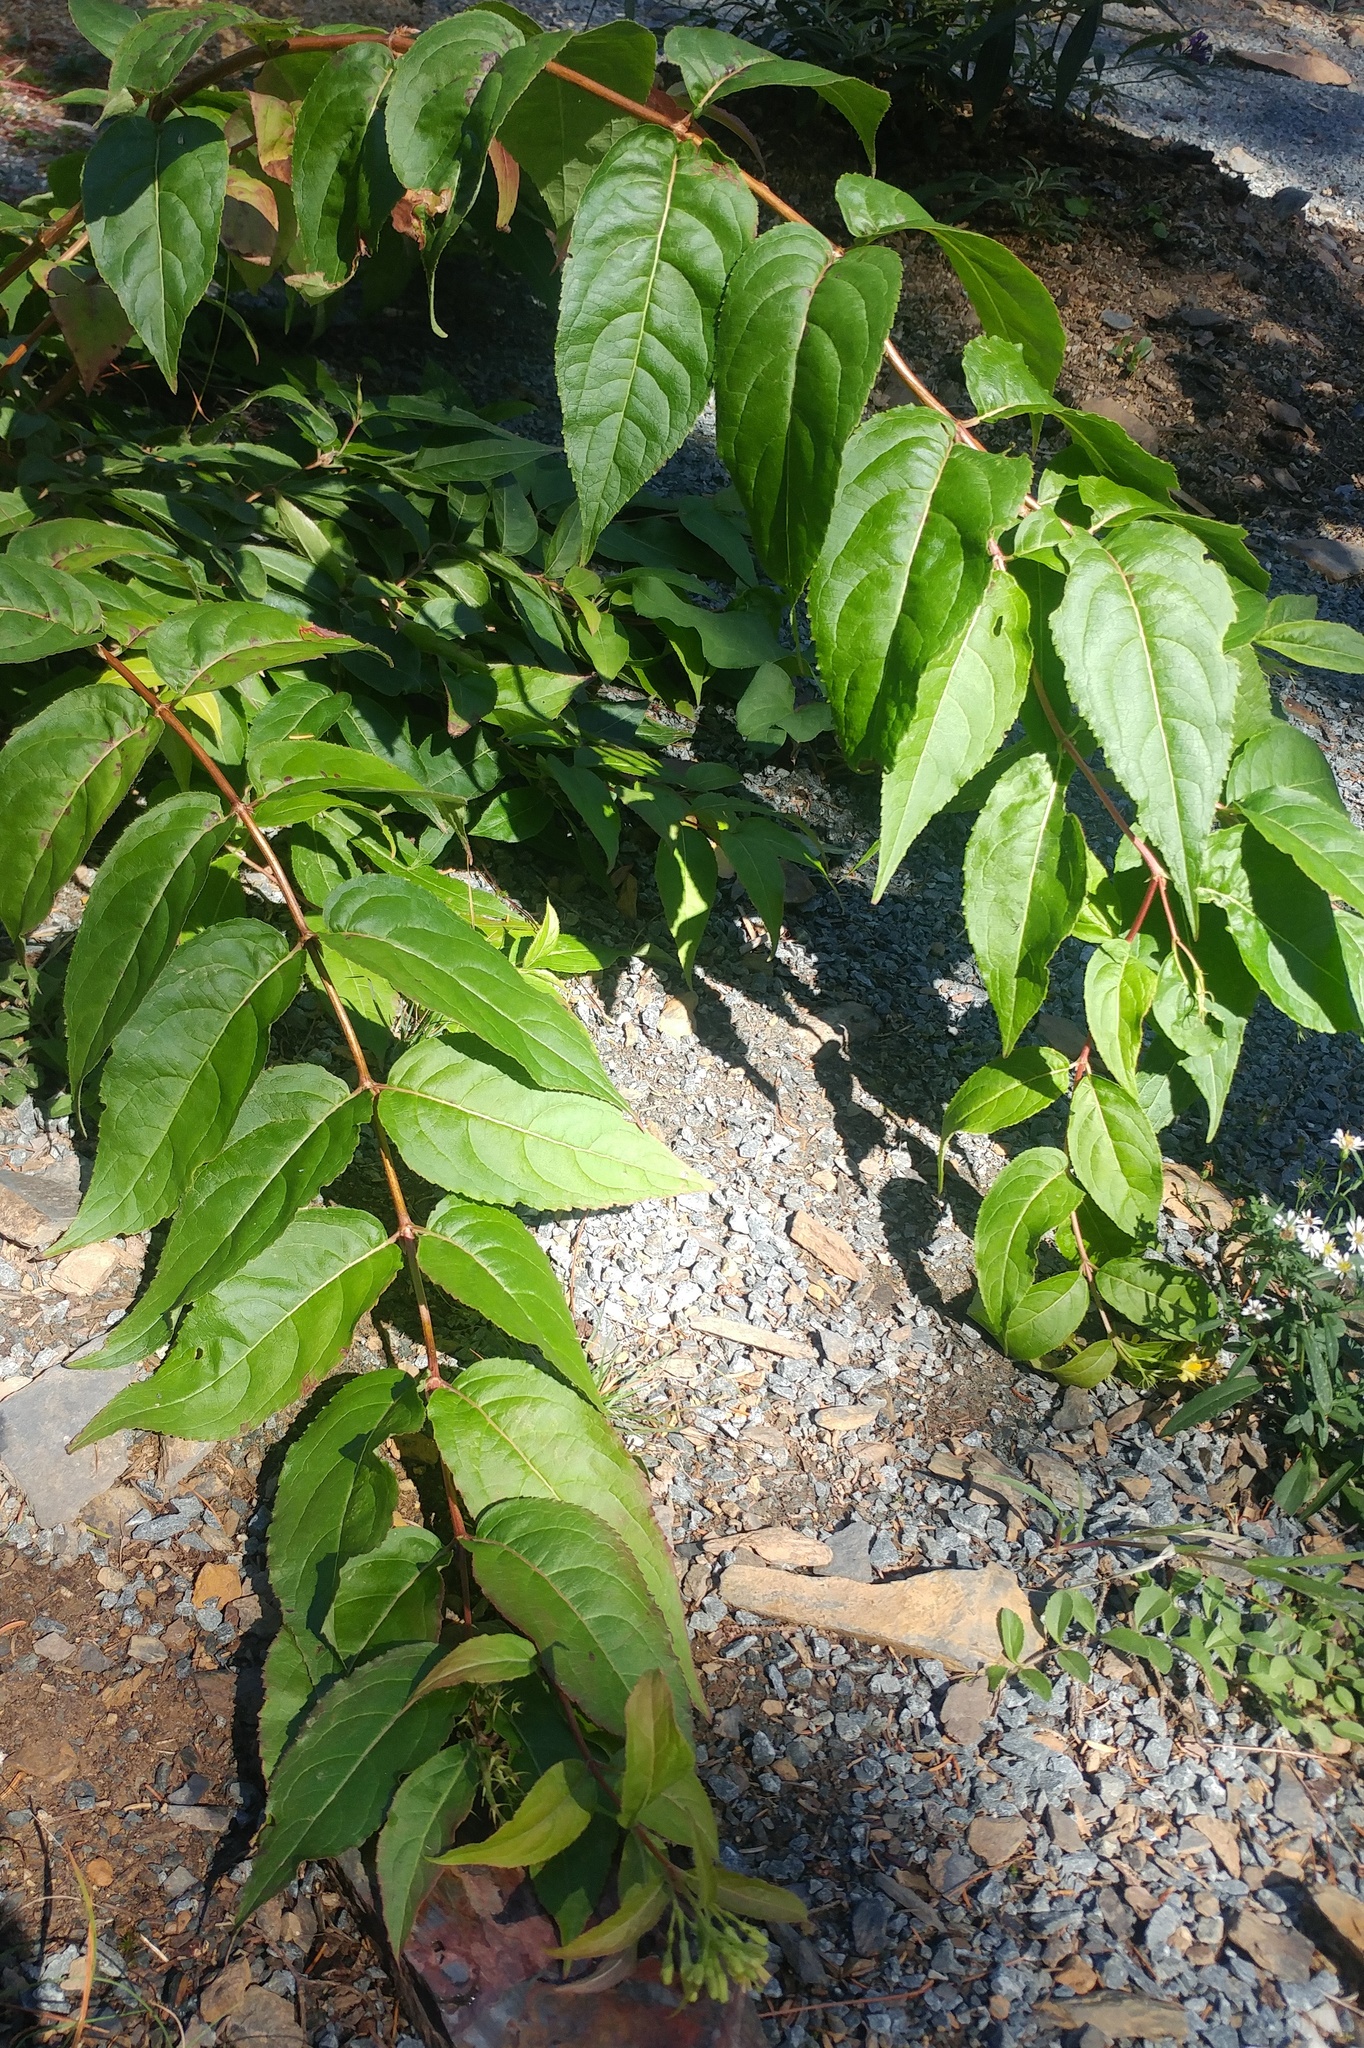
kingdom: Plantae
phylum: Tracheophyta
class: Magnoliopsida
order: Dipsacales
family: Caprifoliaceae
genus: Diervilla
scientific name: Diervilla lonicera
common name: Bush-honeysuckle
